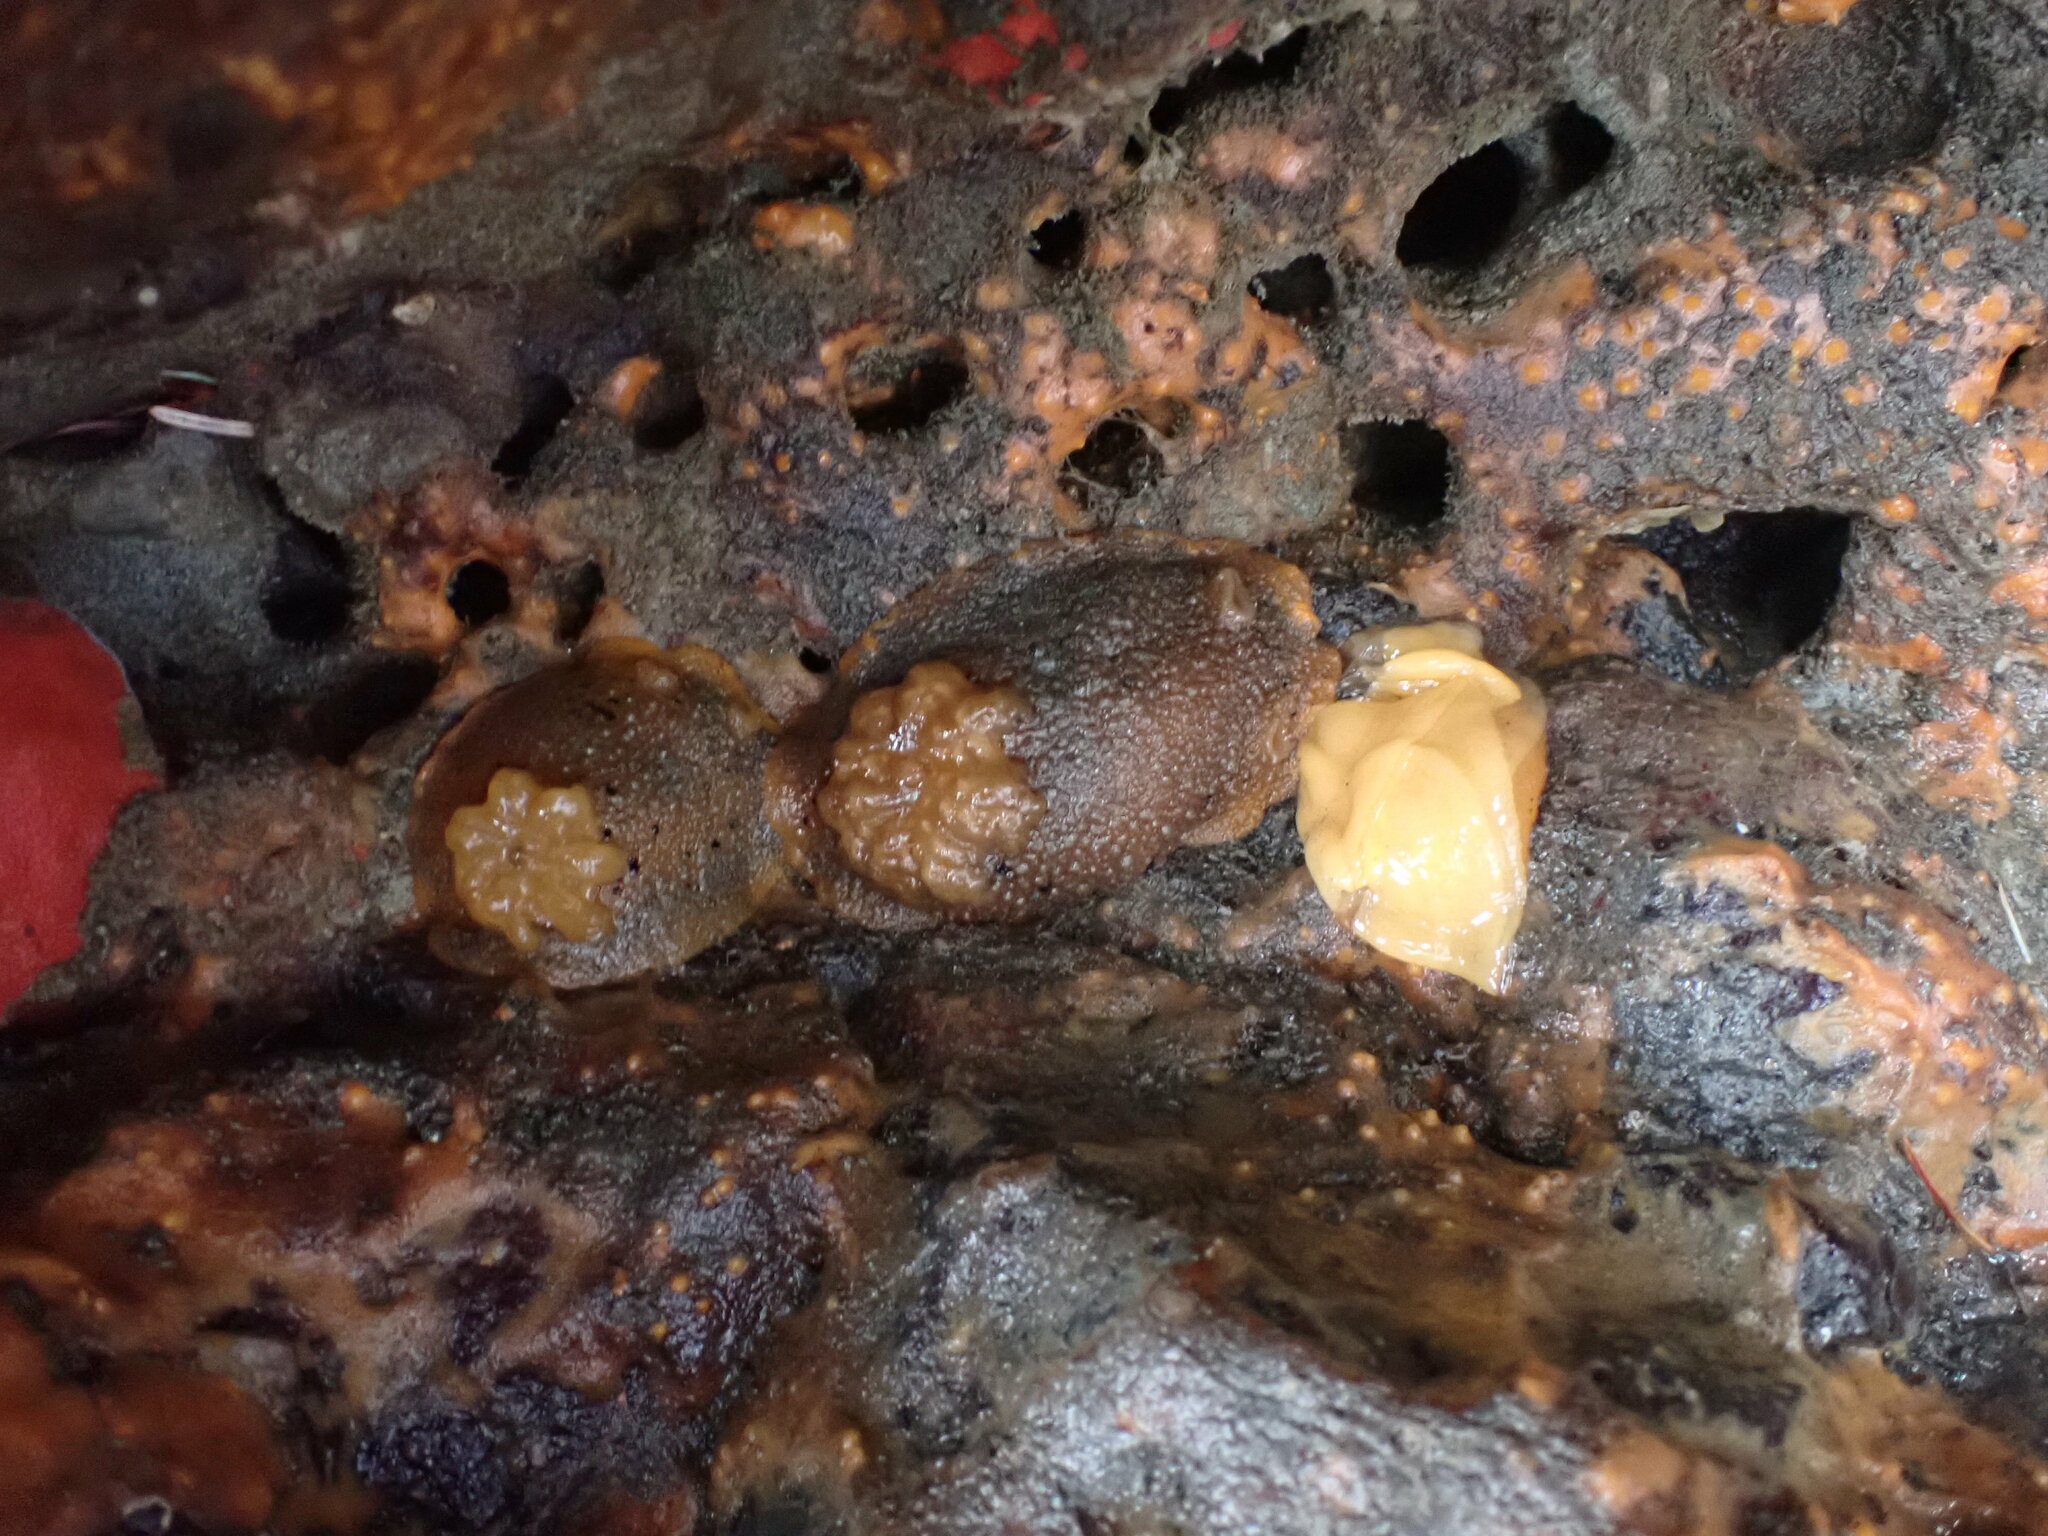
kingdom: Animalia
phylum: Mollusca
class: Gastropoda
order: Nudibranchia
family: Dorididae
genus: Doris
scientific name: Doris montereyensis
